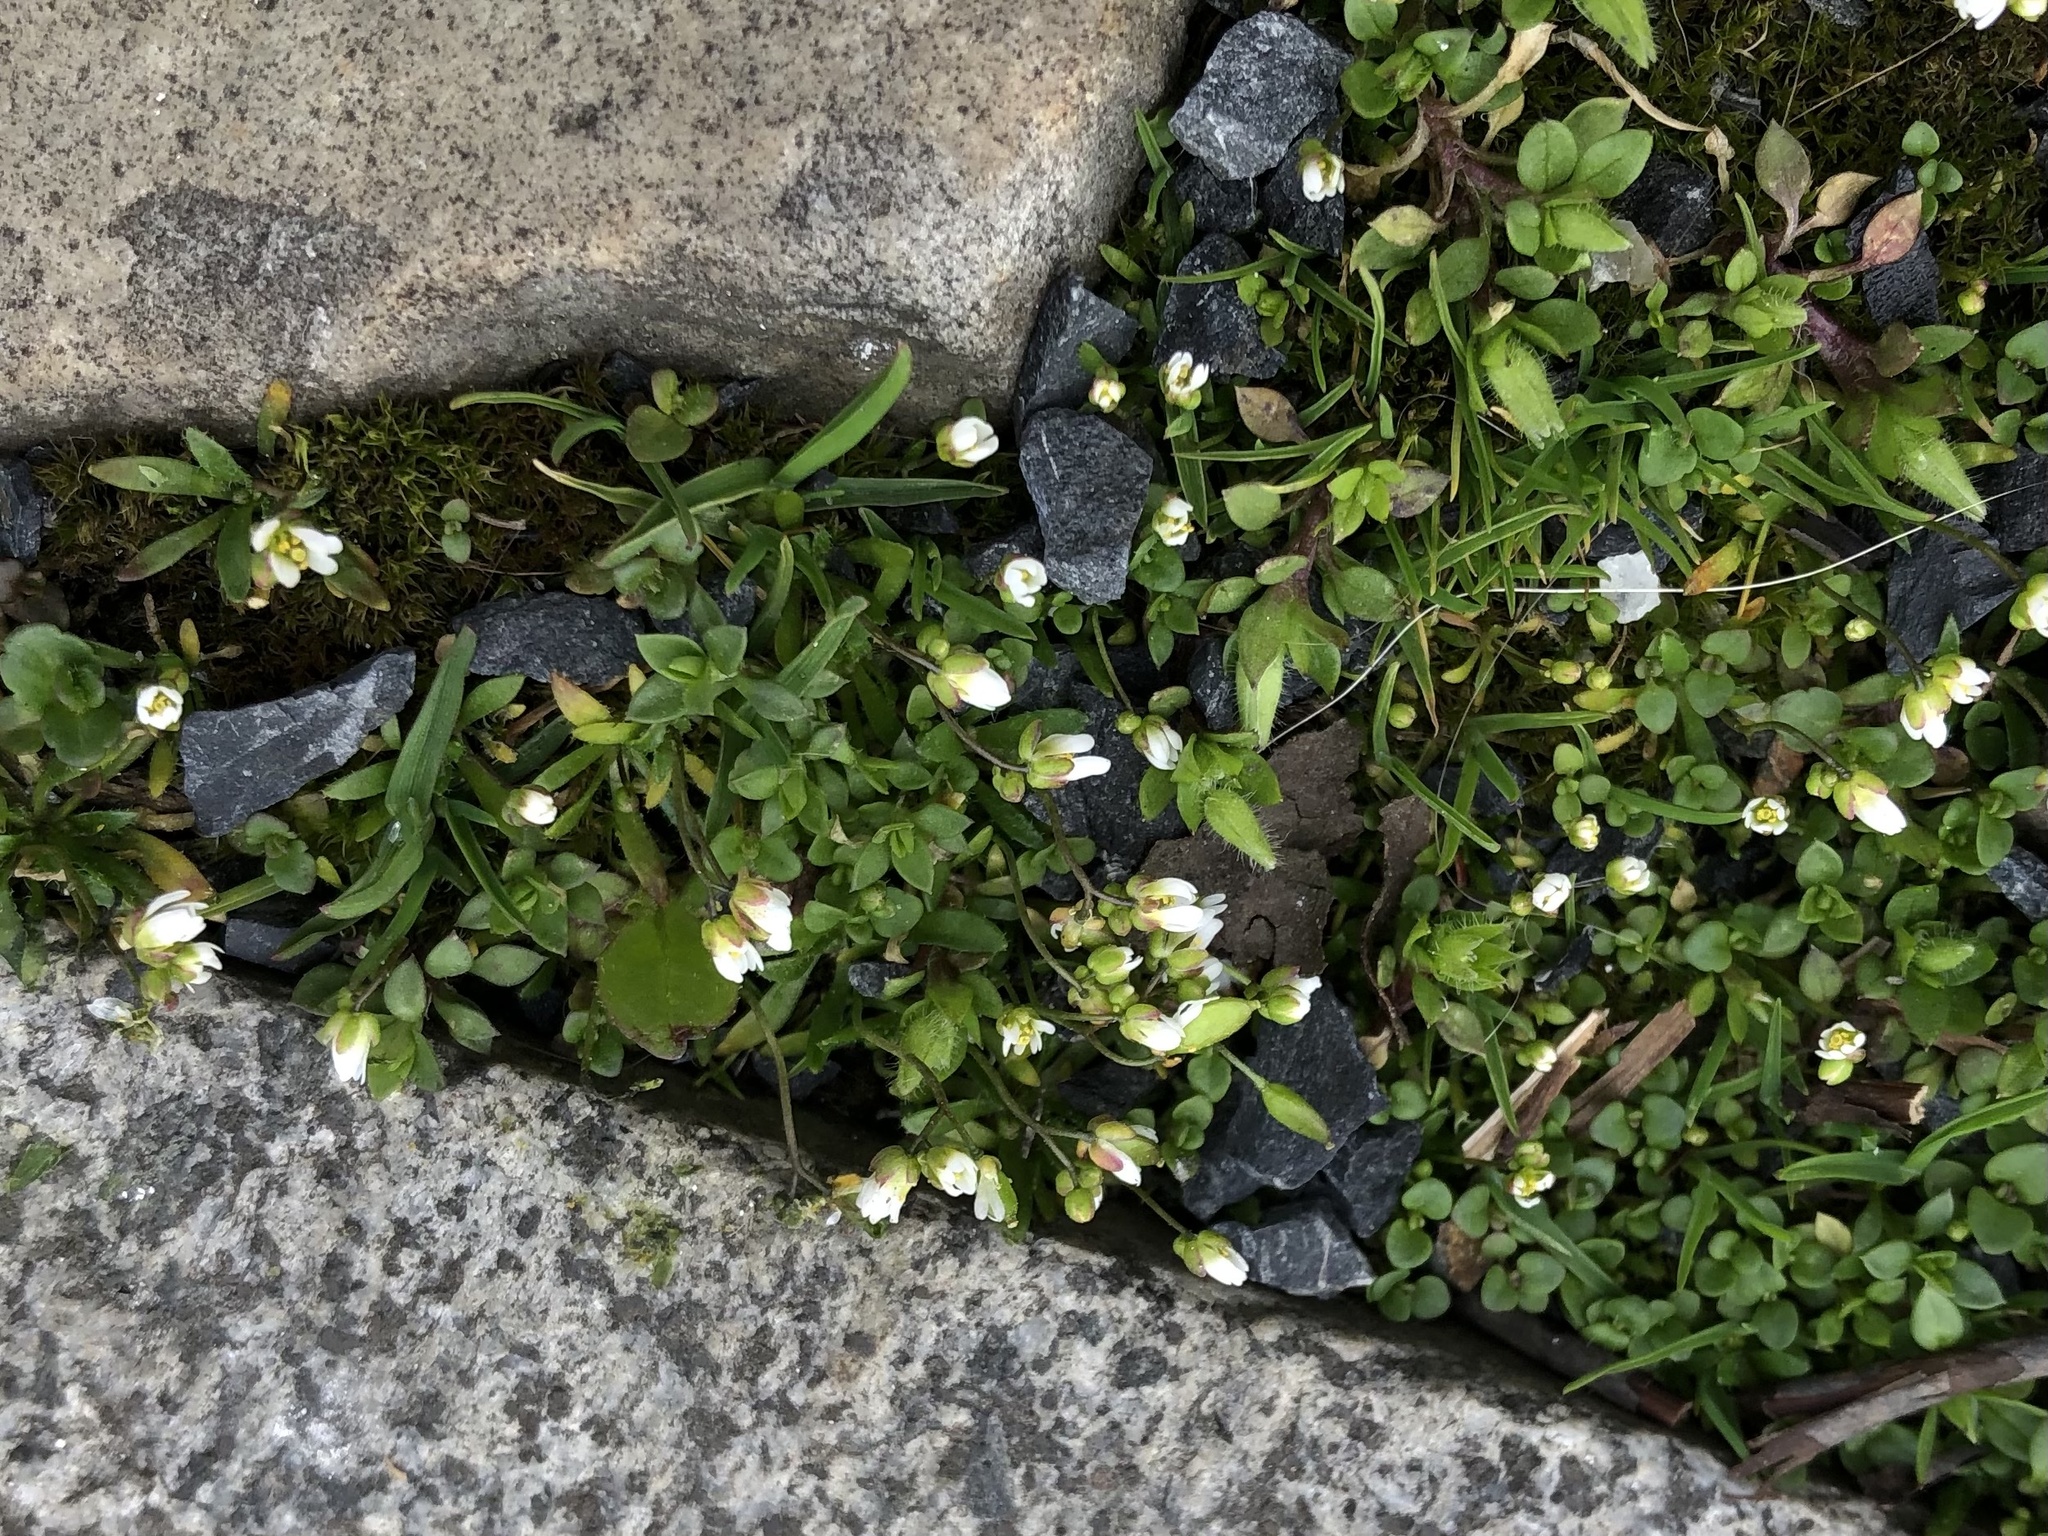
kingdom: Plantae
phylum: Tracheophyta
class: Magnoliopsida
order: Brassicales
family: Brassicaceae
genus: Draba
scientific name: Draba verna
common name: Spring draba
